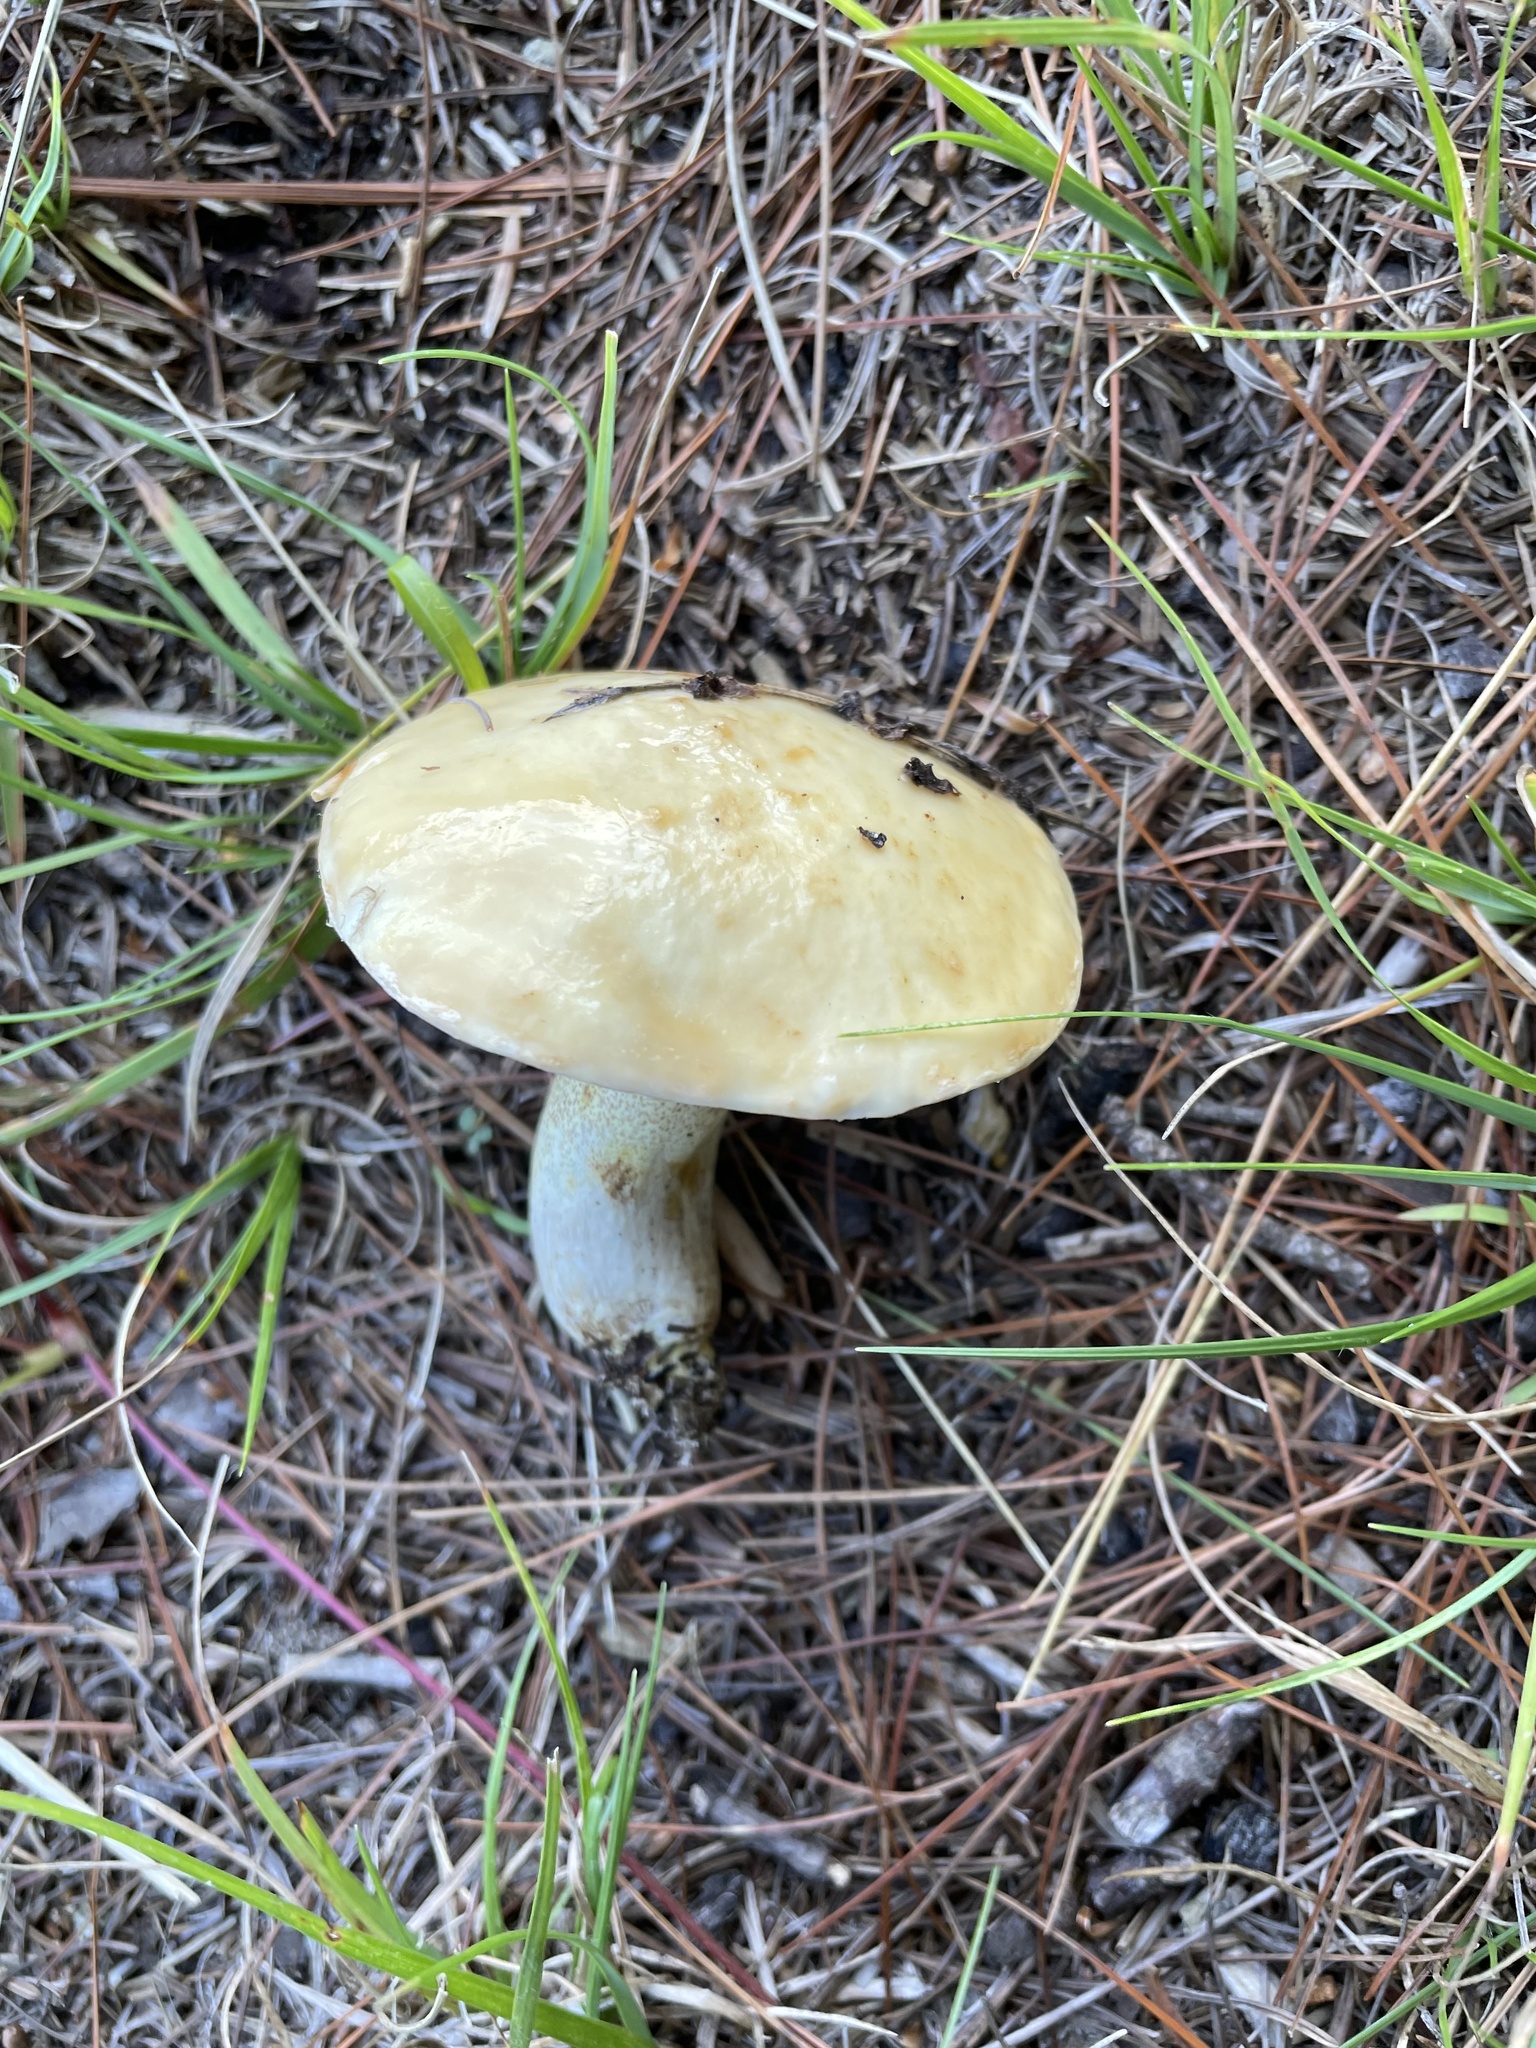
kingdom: Fungi
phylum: Basidiomycota
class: Agaricomycetes
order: Boletales
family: Suillaceae
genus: Fuscoboletinus
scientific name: Fuscoboletinus weaverae
